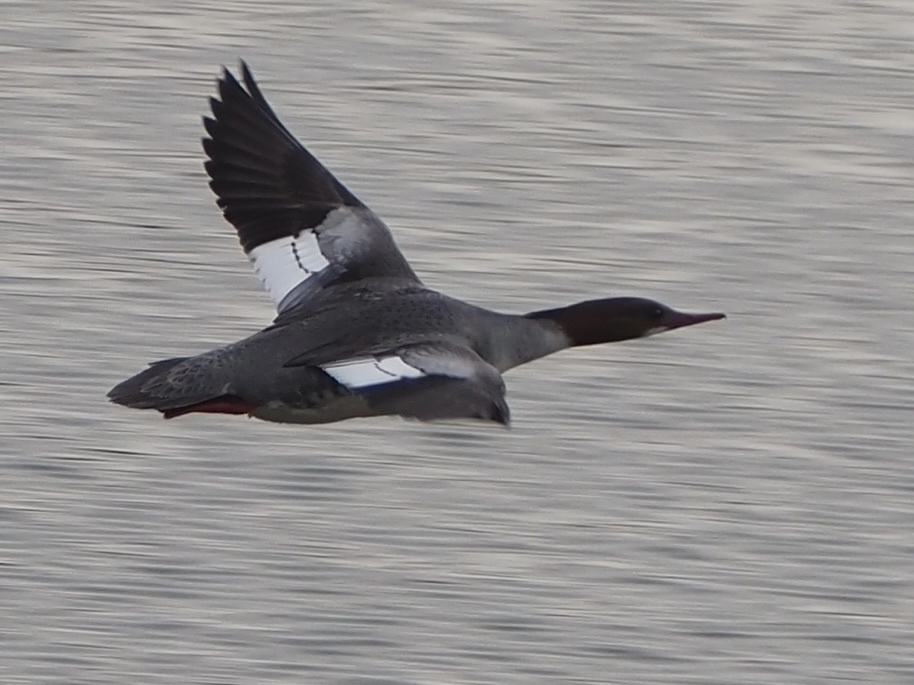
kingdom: Animalia
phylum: Chordata
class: Aves
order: Anseriformes
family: Anatidae
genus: Mergus
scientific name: Mergus merganser
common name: Common merganser
